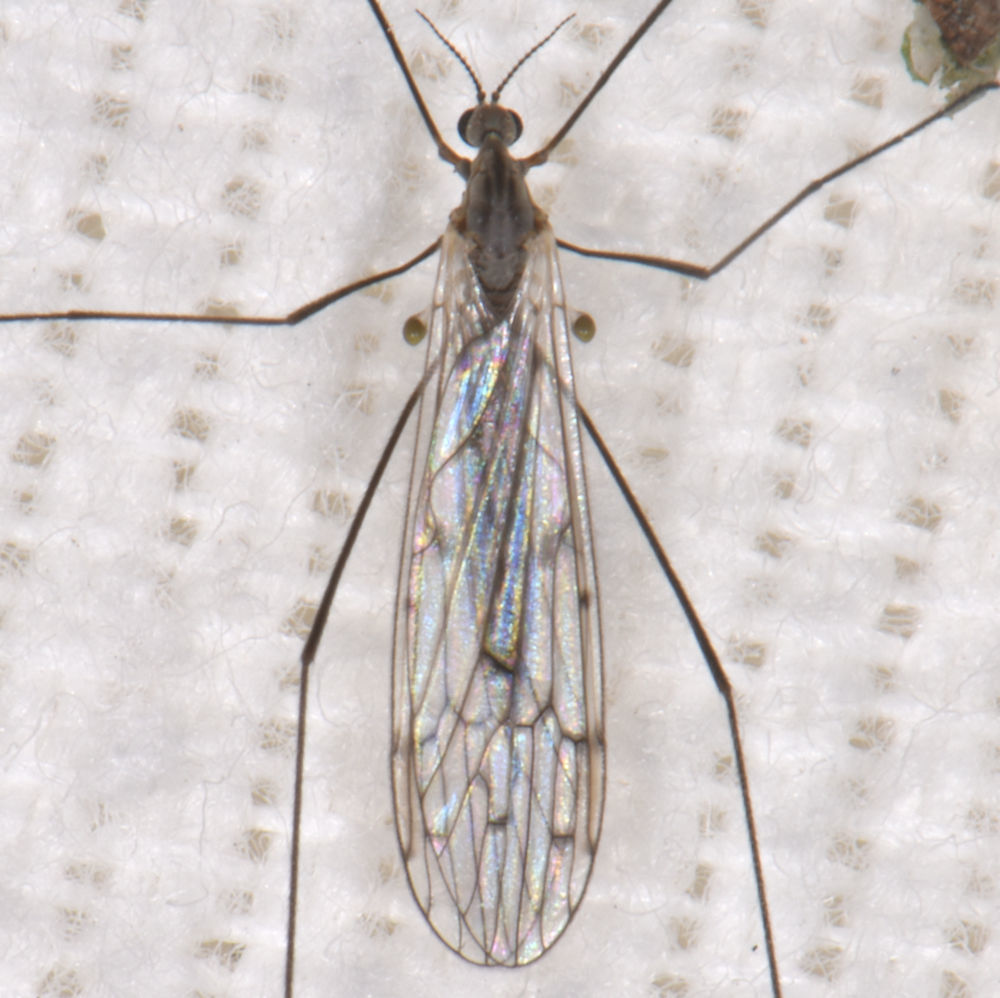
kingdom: Animalia
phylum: Arthropoda
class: Insecta
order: Diptera
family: Limoniidae
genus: Symplecta
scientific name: Symplecta cana
